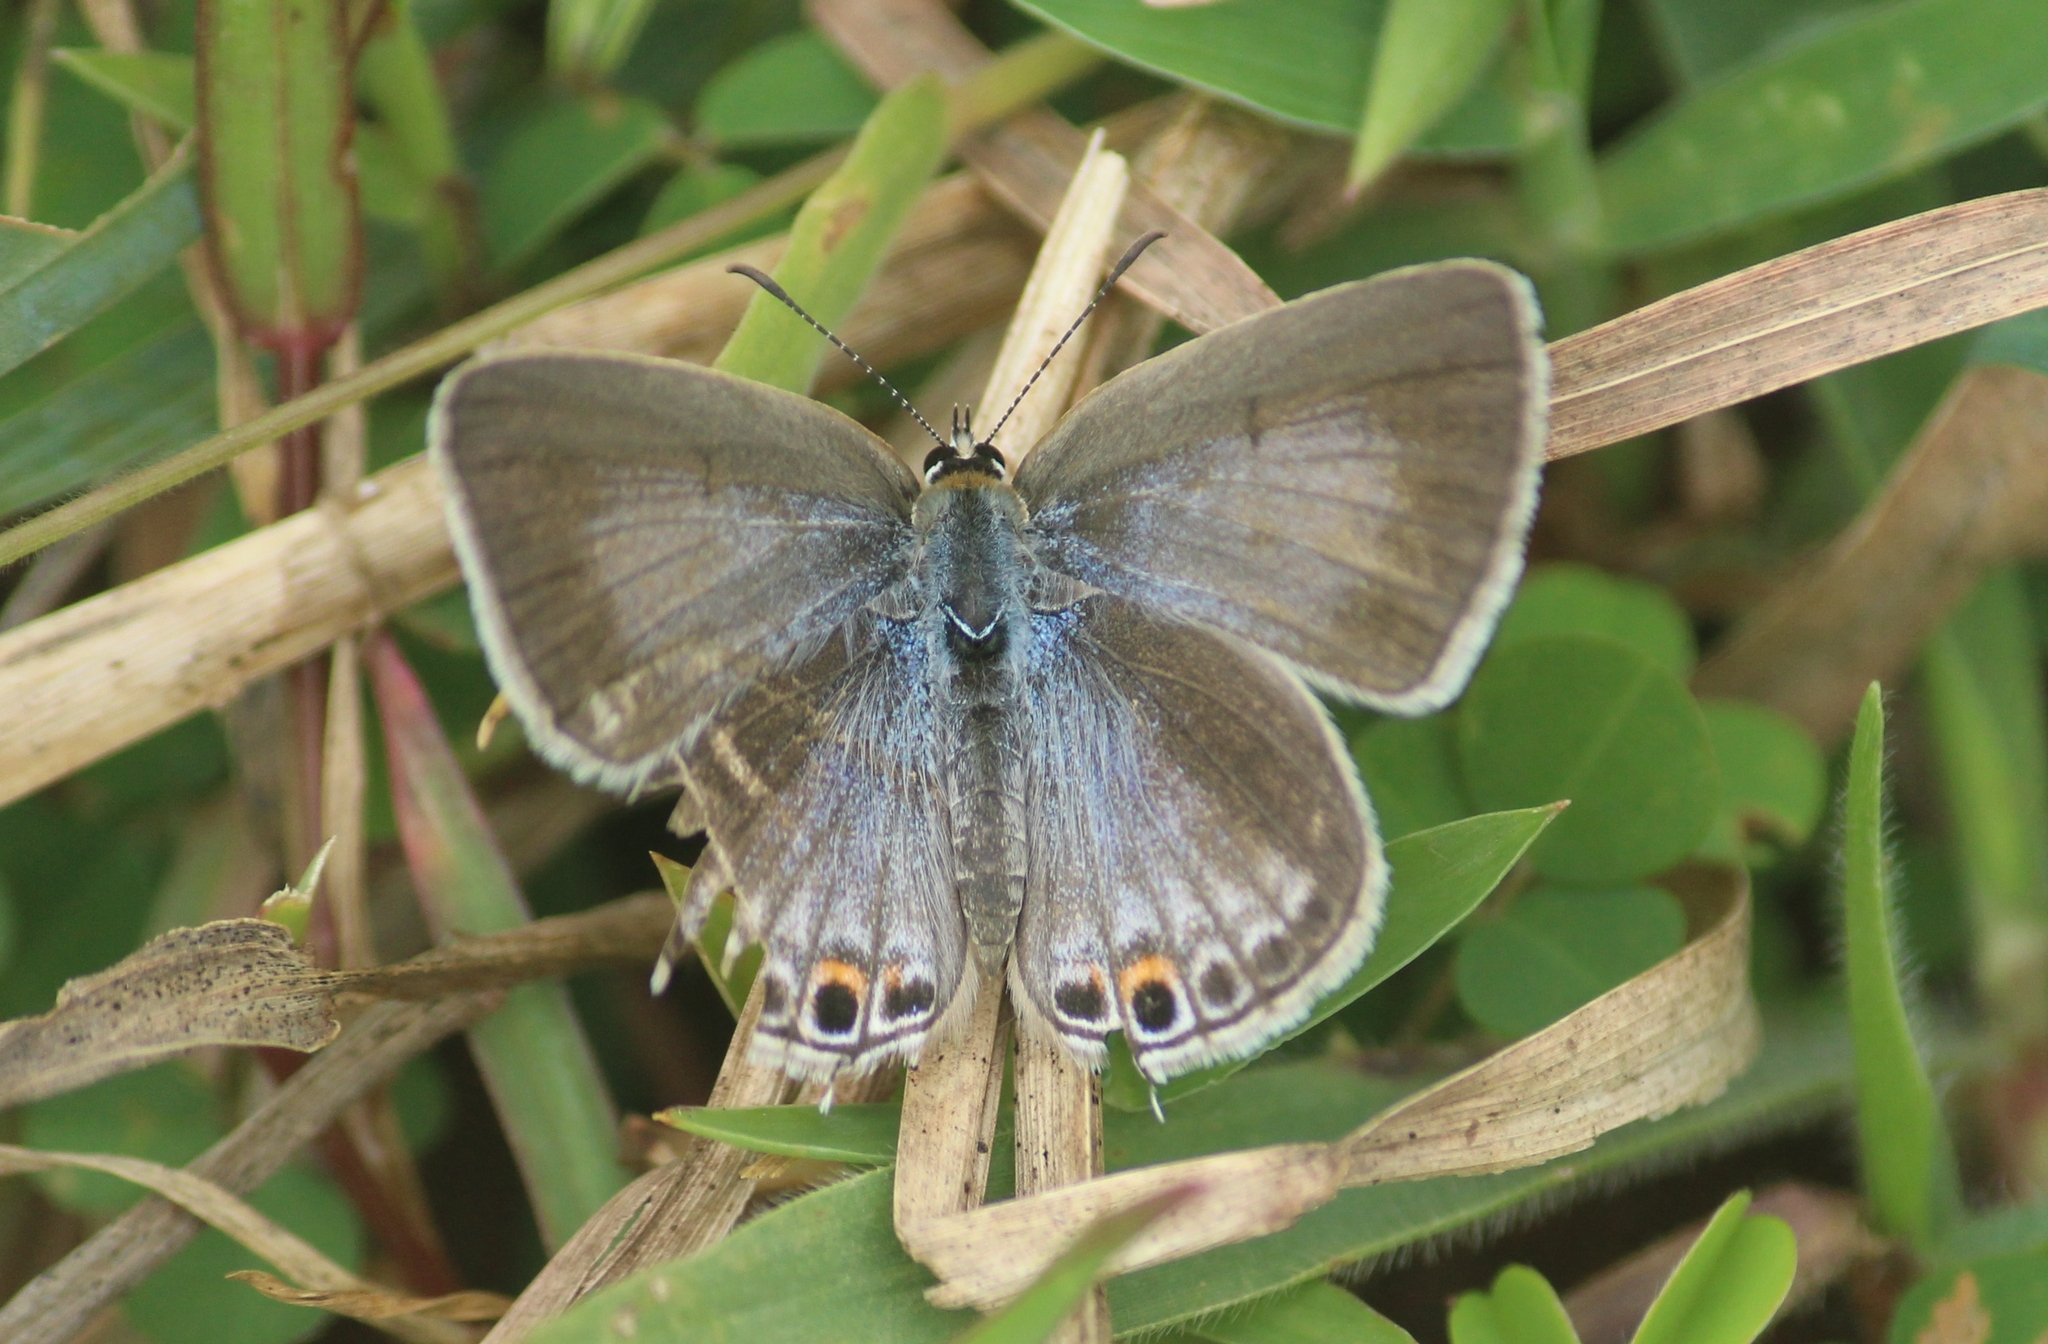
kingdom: Animalia
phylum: Arthropoda
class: Insecta
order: Lepidoptera
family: Lycaenidae
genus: Euchrysops
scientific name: Euchrysops cnejus
